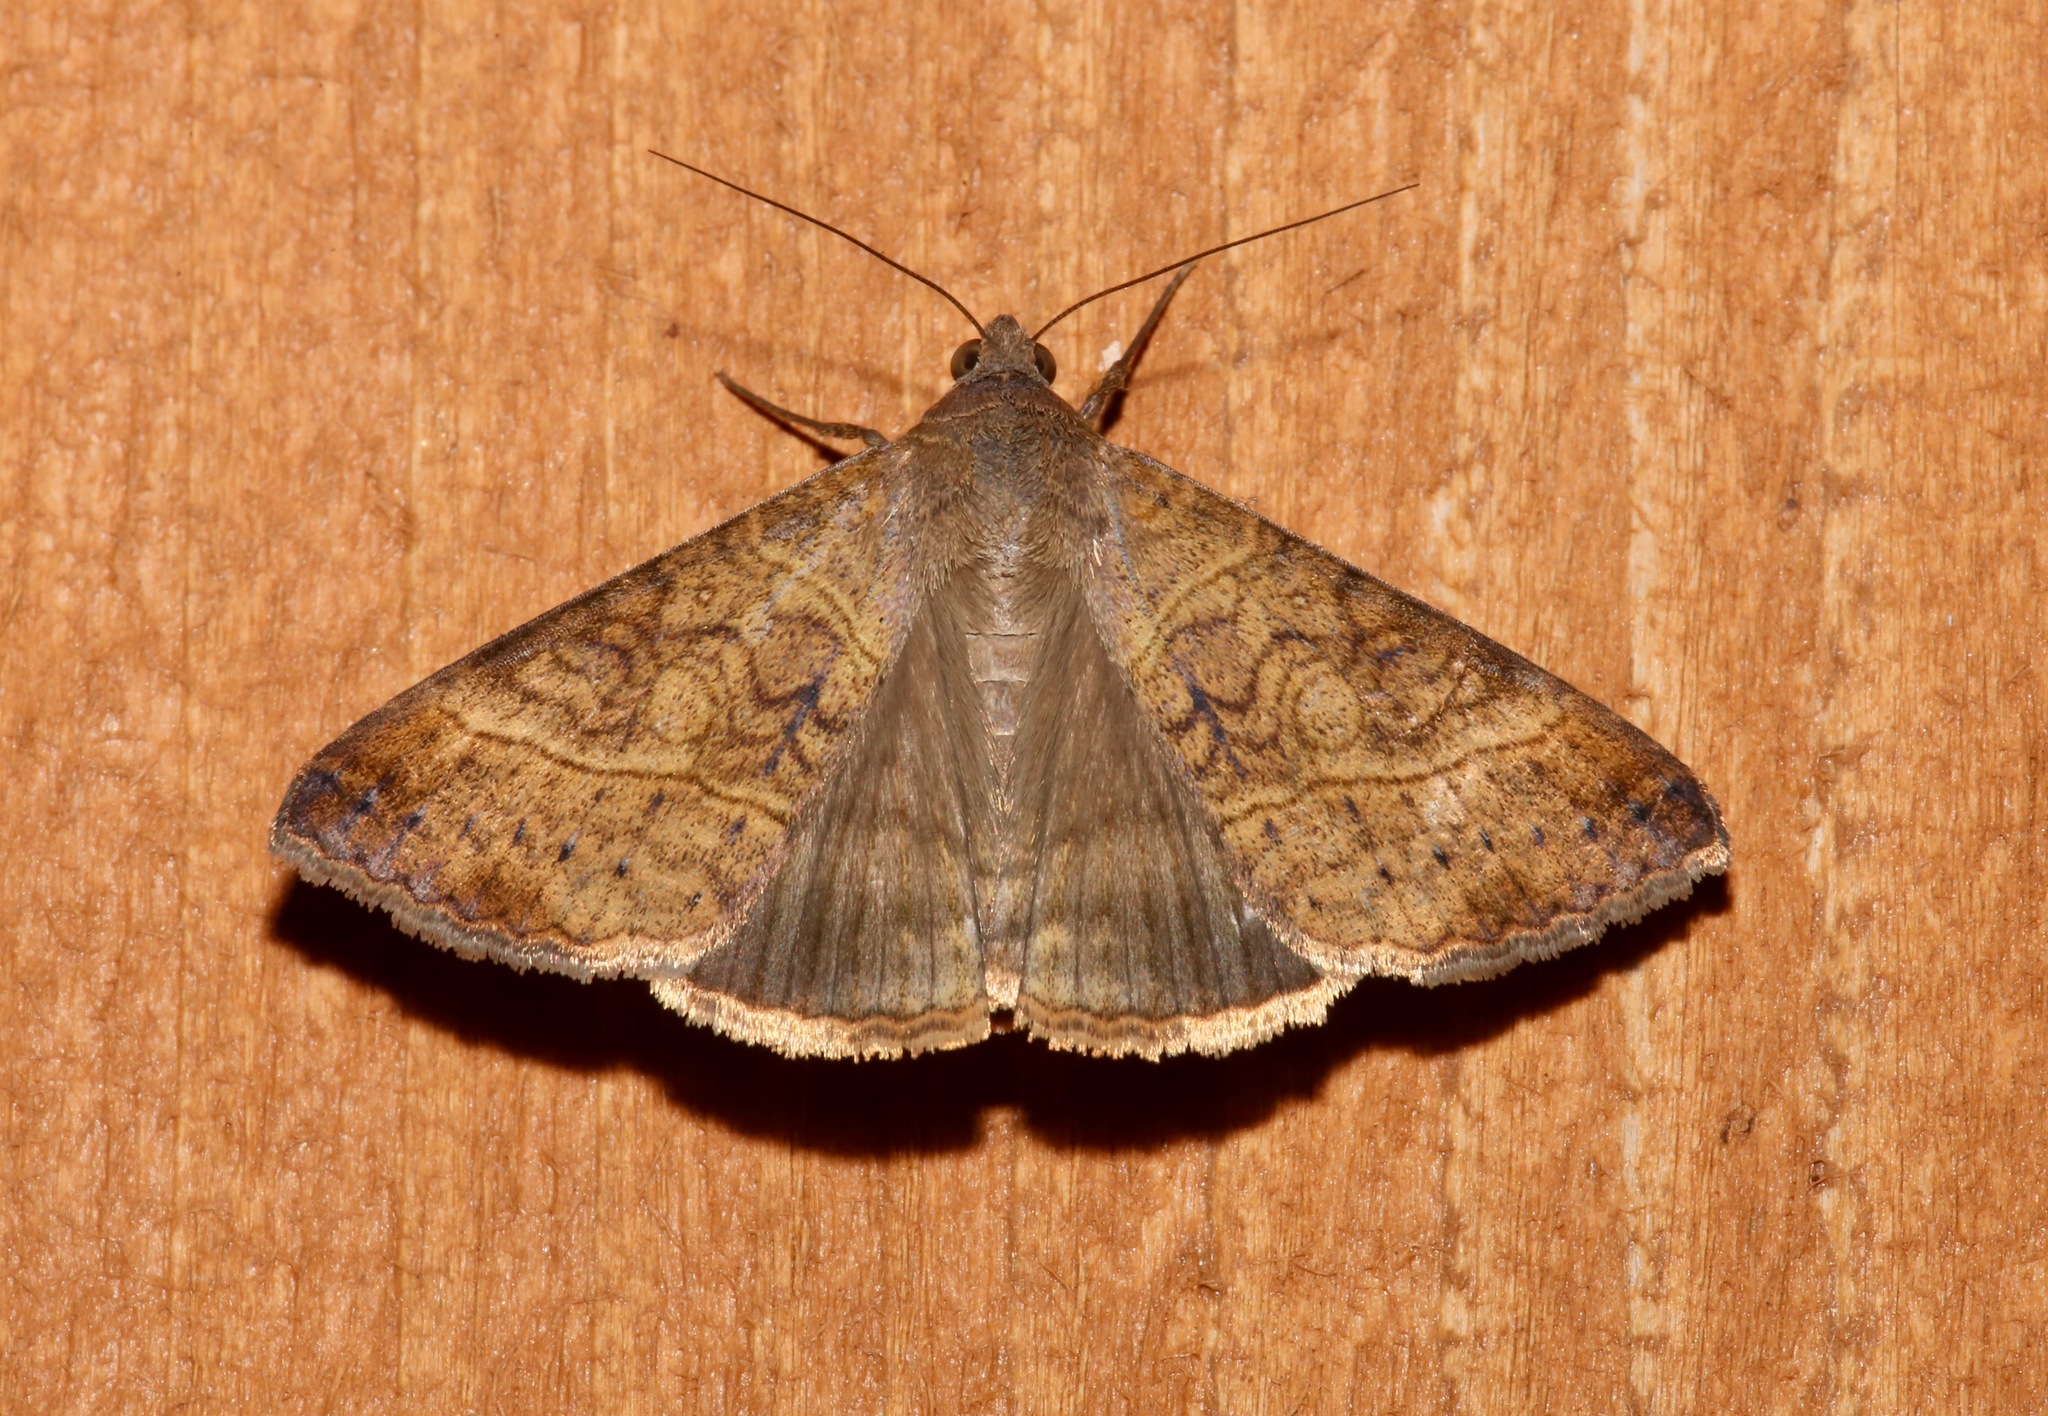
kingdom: Animalia
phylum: Arthropoda
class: Insecta
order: Lepidoptera
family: Erebidae
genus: Mocis
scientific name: Mocis latipes
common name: Striped grass looper
